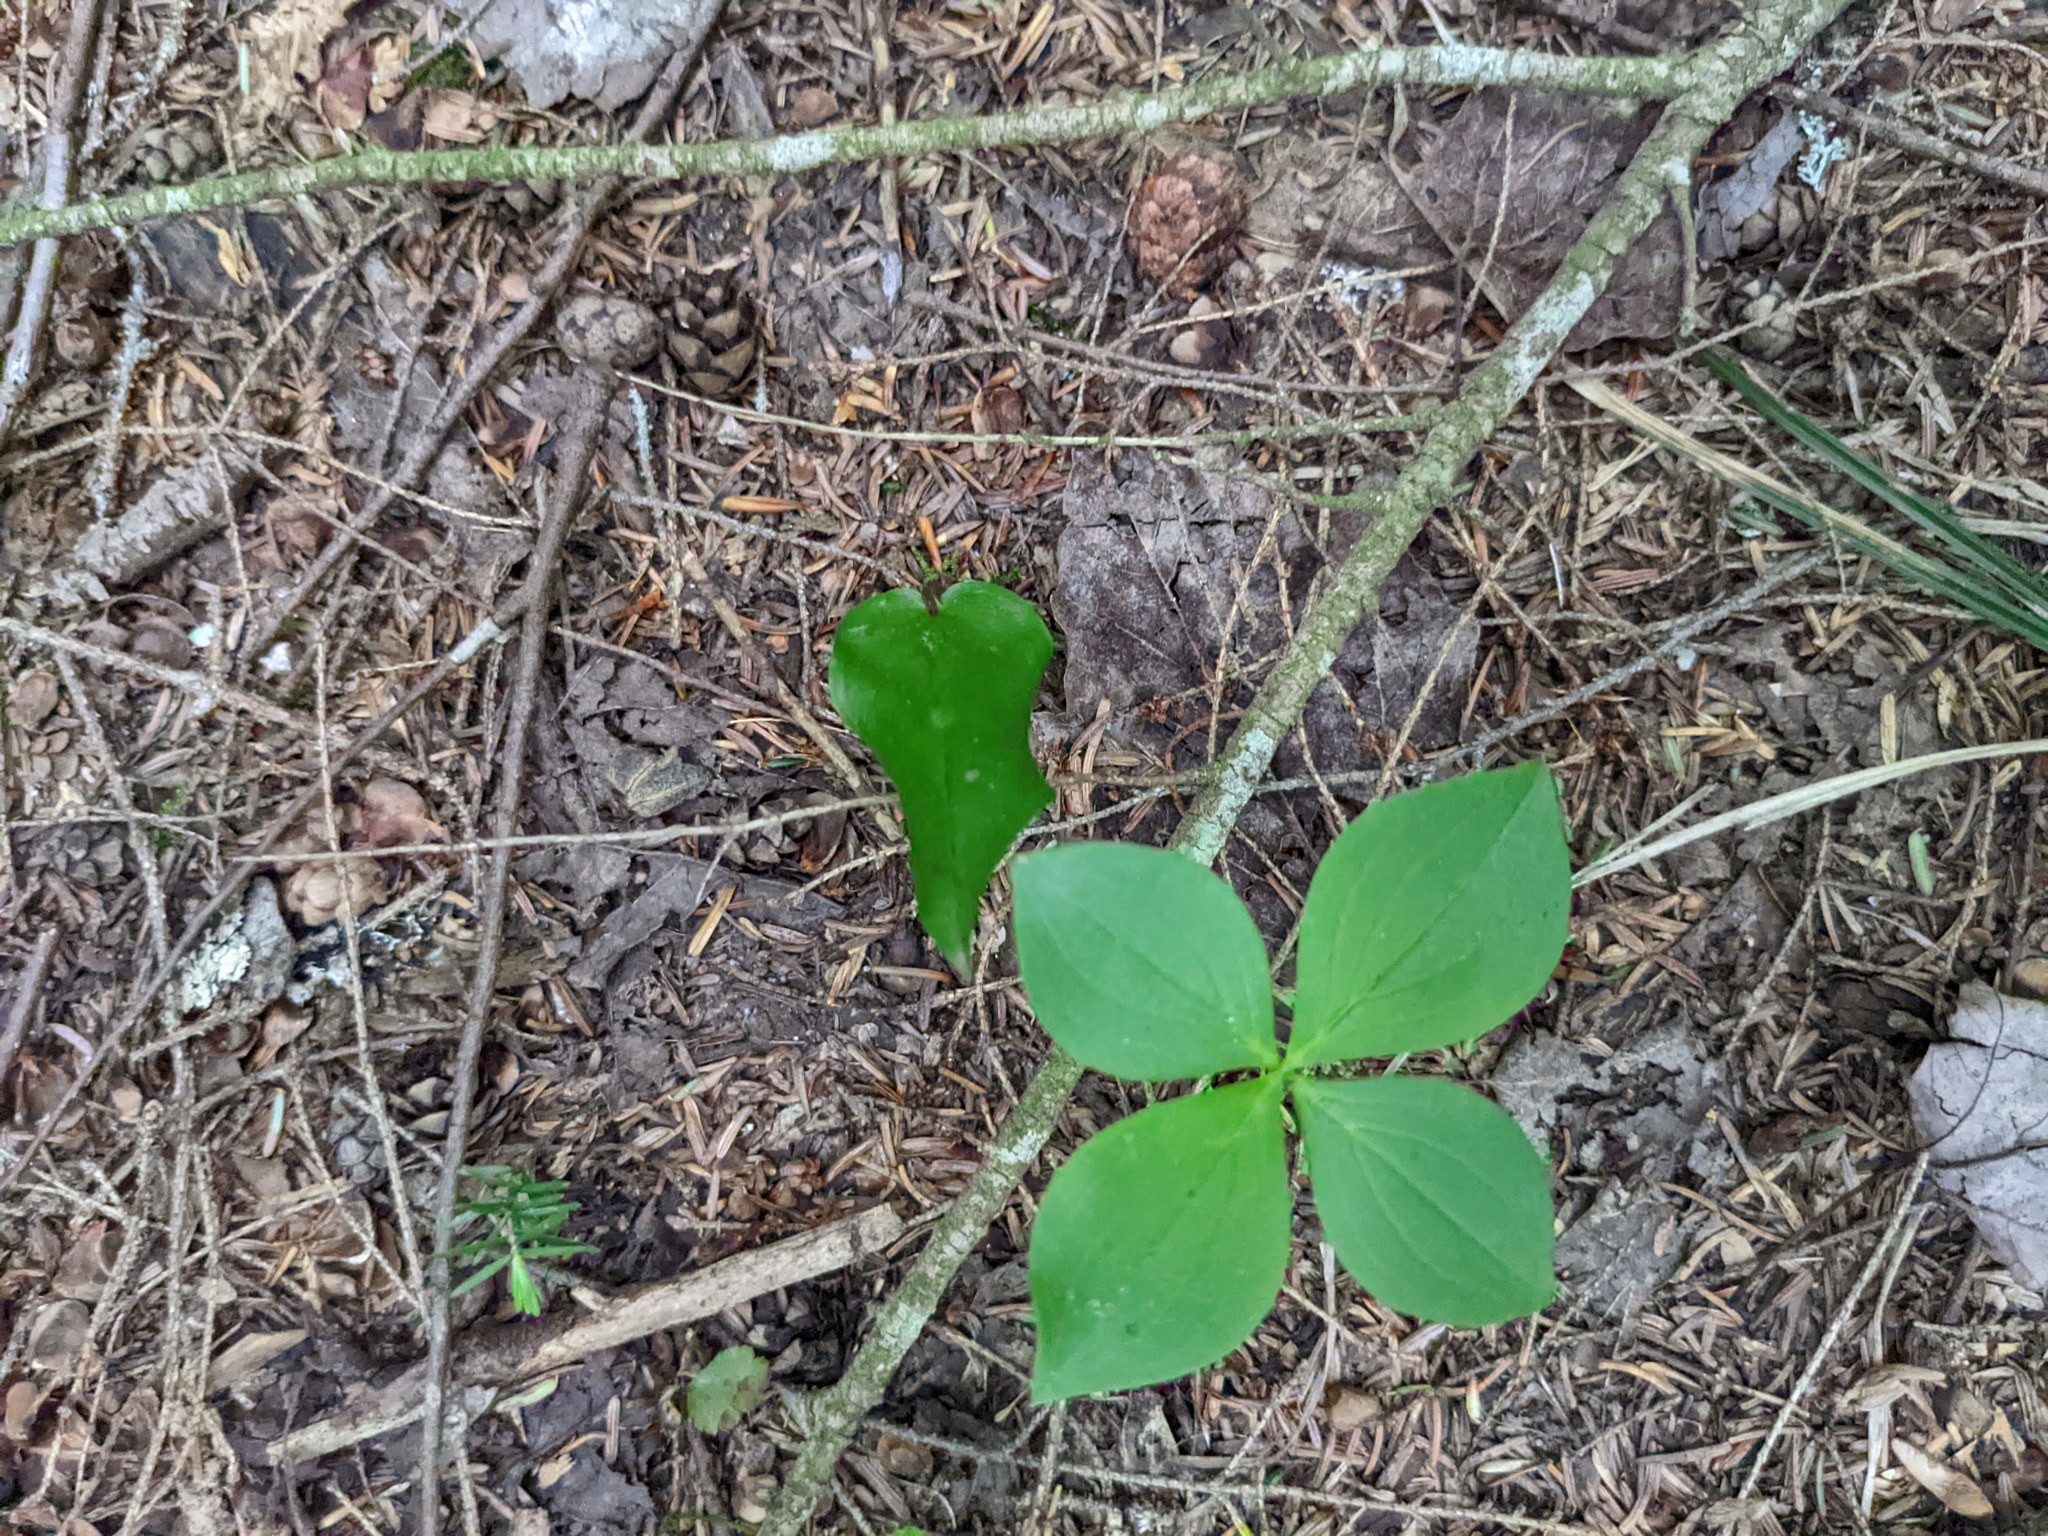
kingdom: Plantae
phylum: Tracheophyta
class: Magnoliopsida
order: Cornales
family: Cornaceae
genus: Cornus
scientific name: Cornus canadensis
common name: Creeping dogwood
